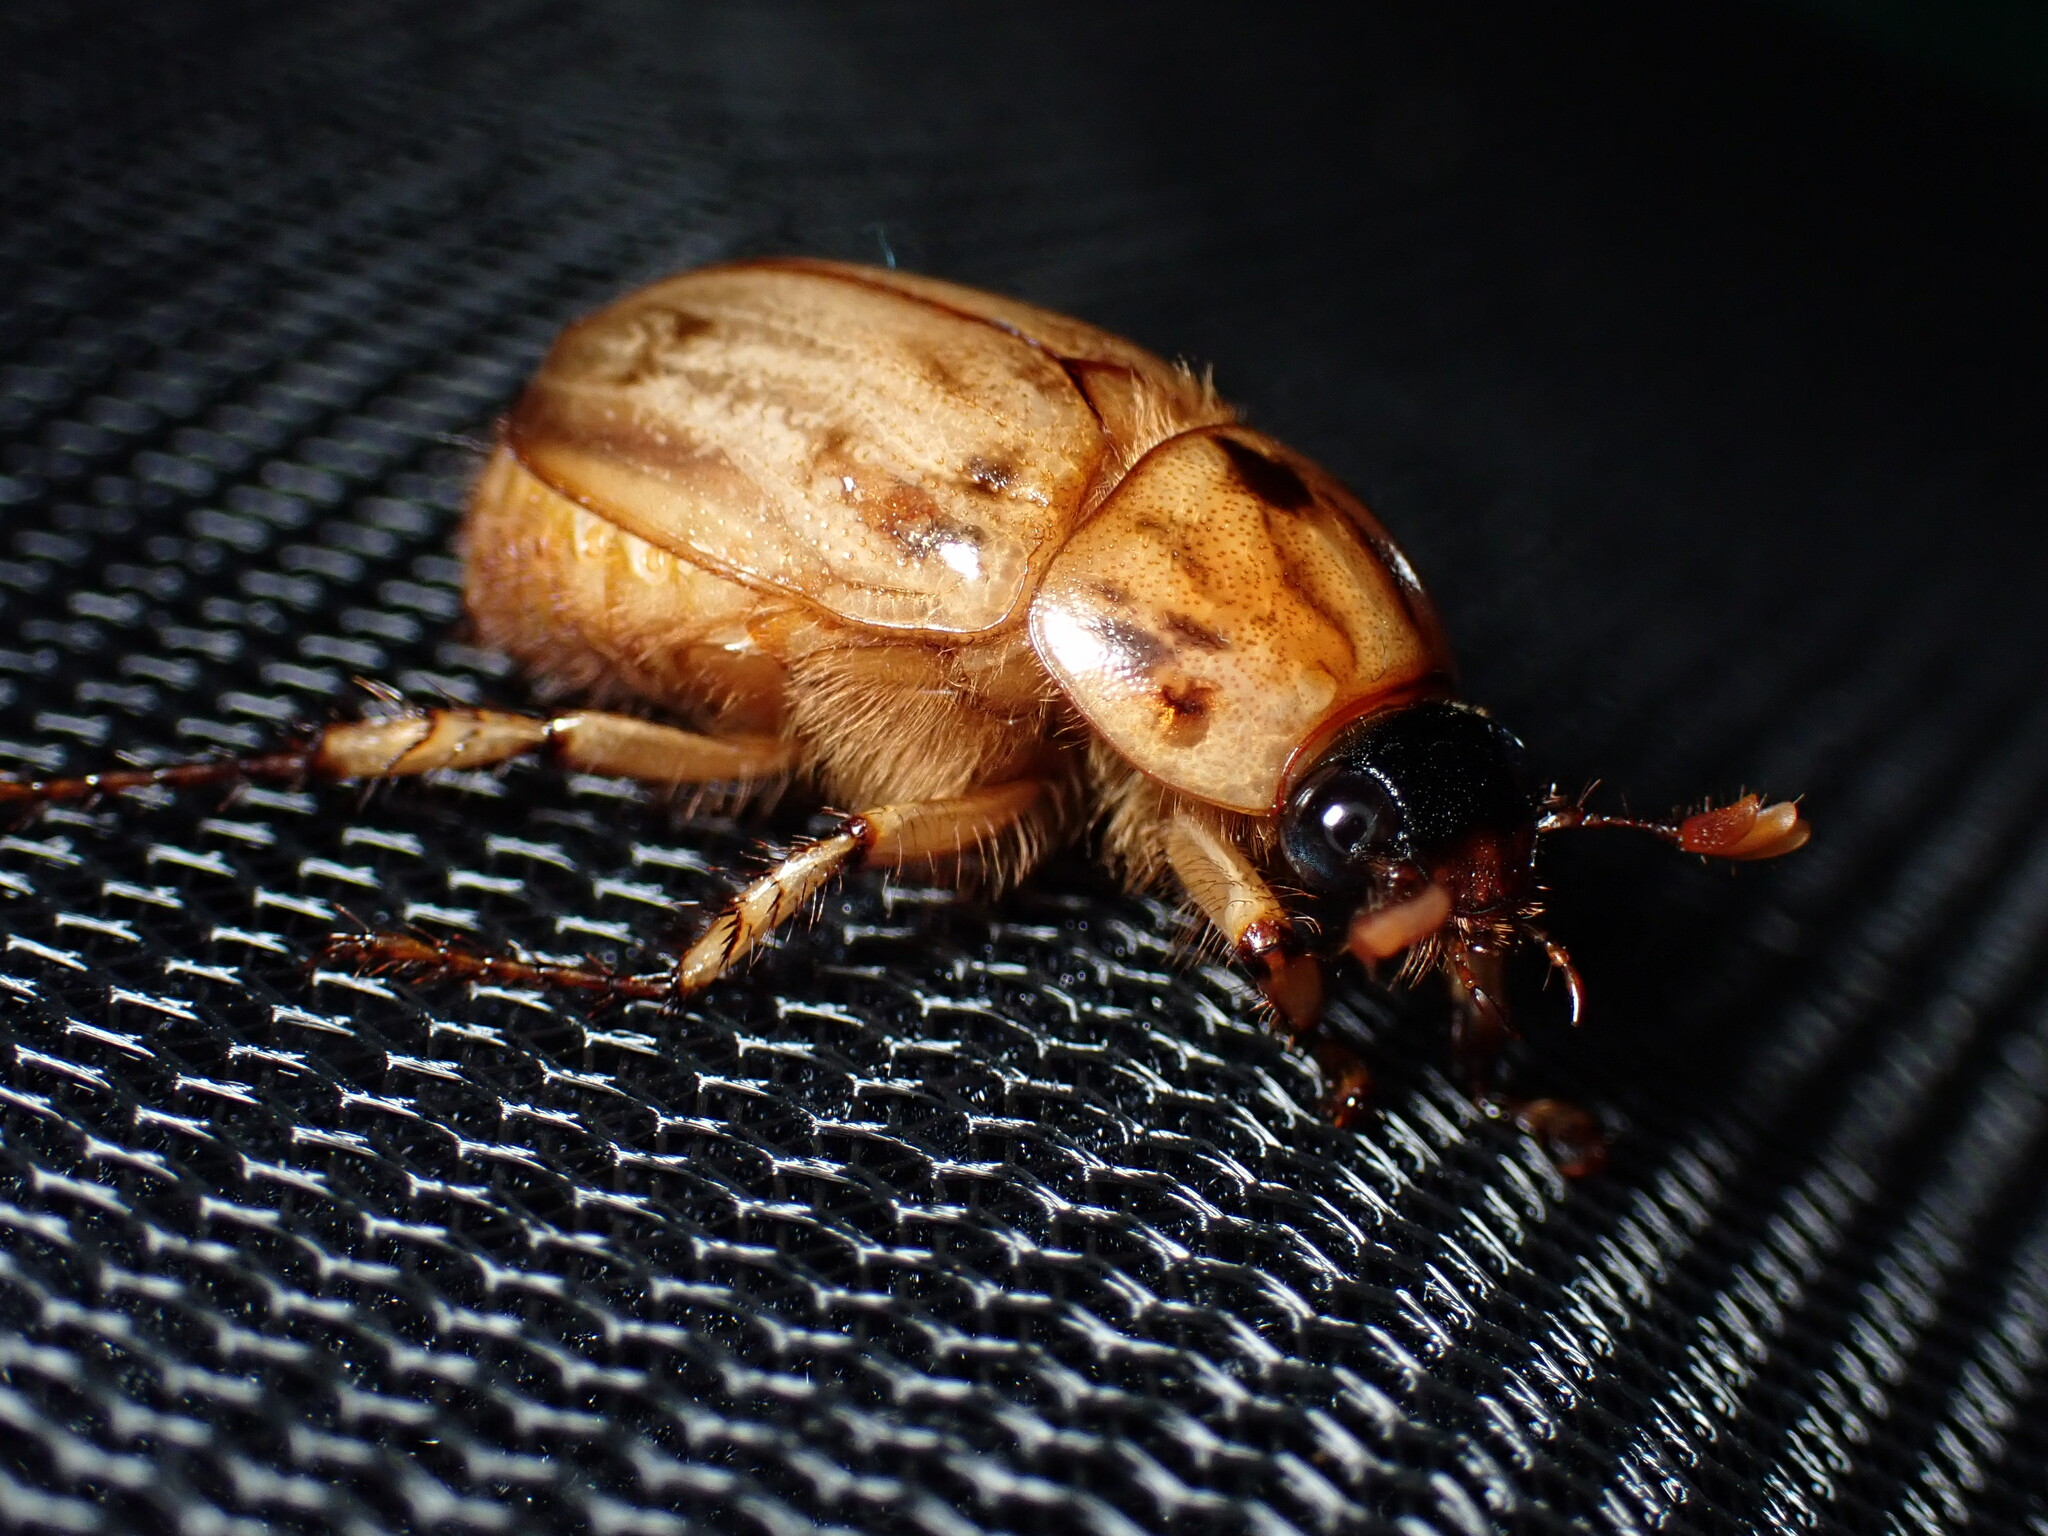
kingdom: Animalia
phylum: Arthropoda
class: Insecta
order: Coleoptera
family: Scarabaeidae
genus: Cyclocephala
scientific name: Cyclocephala signaticollis
